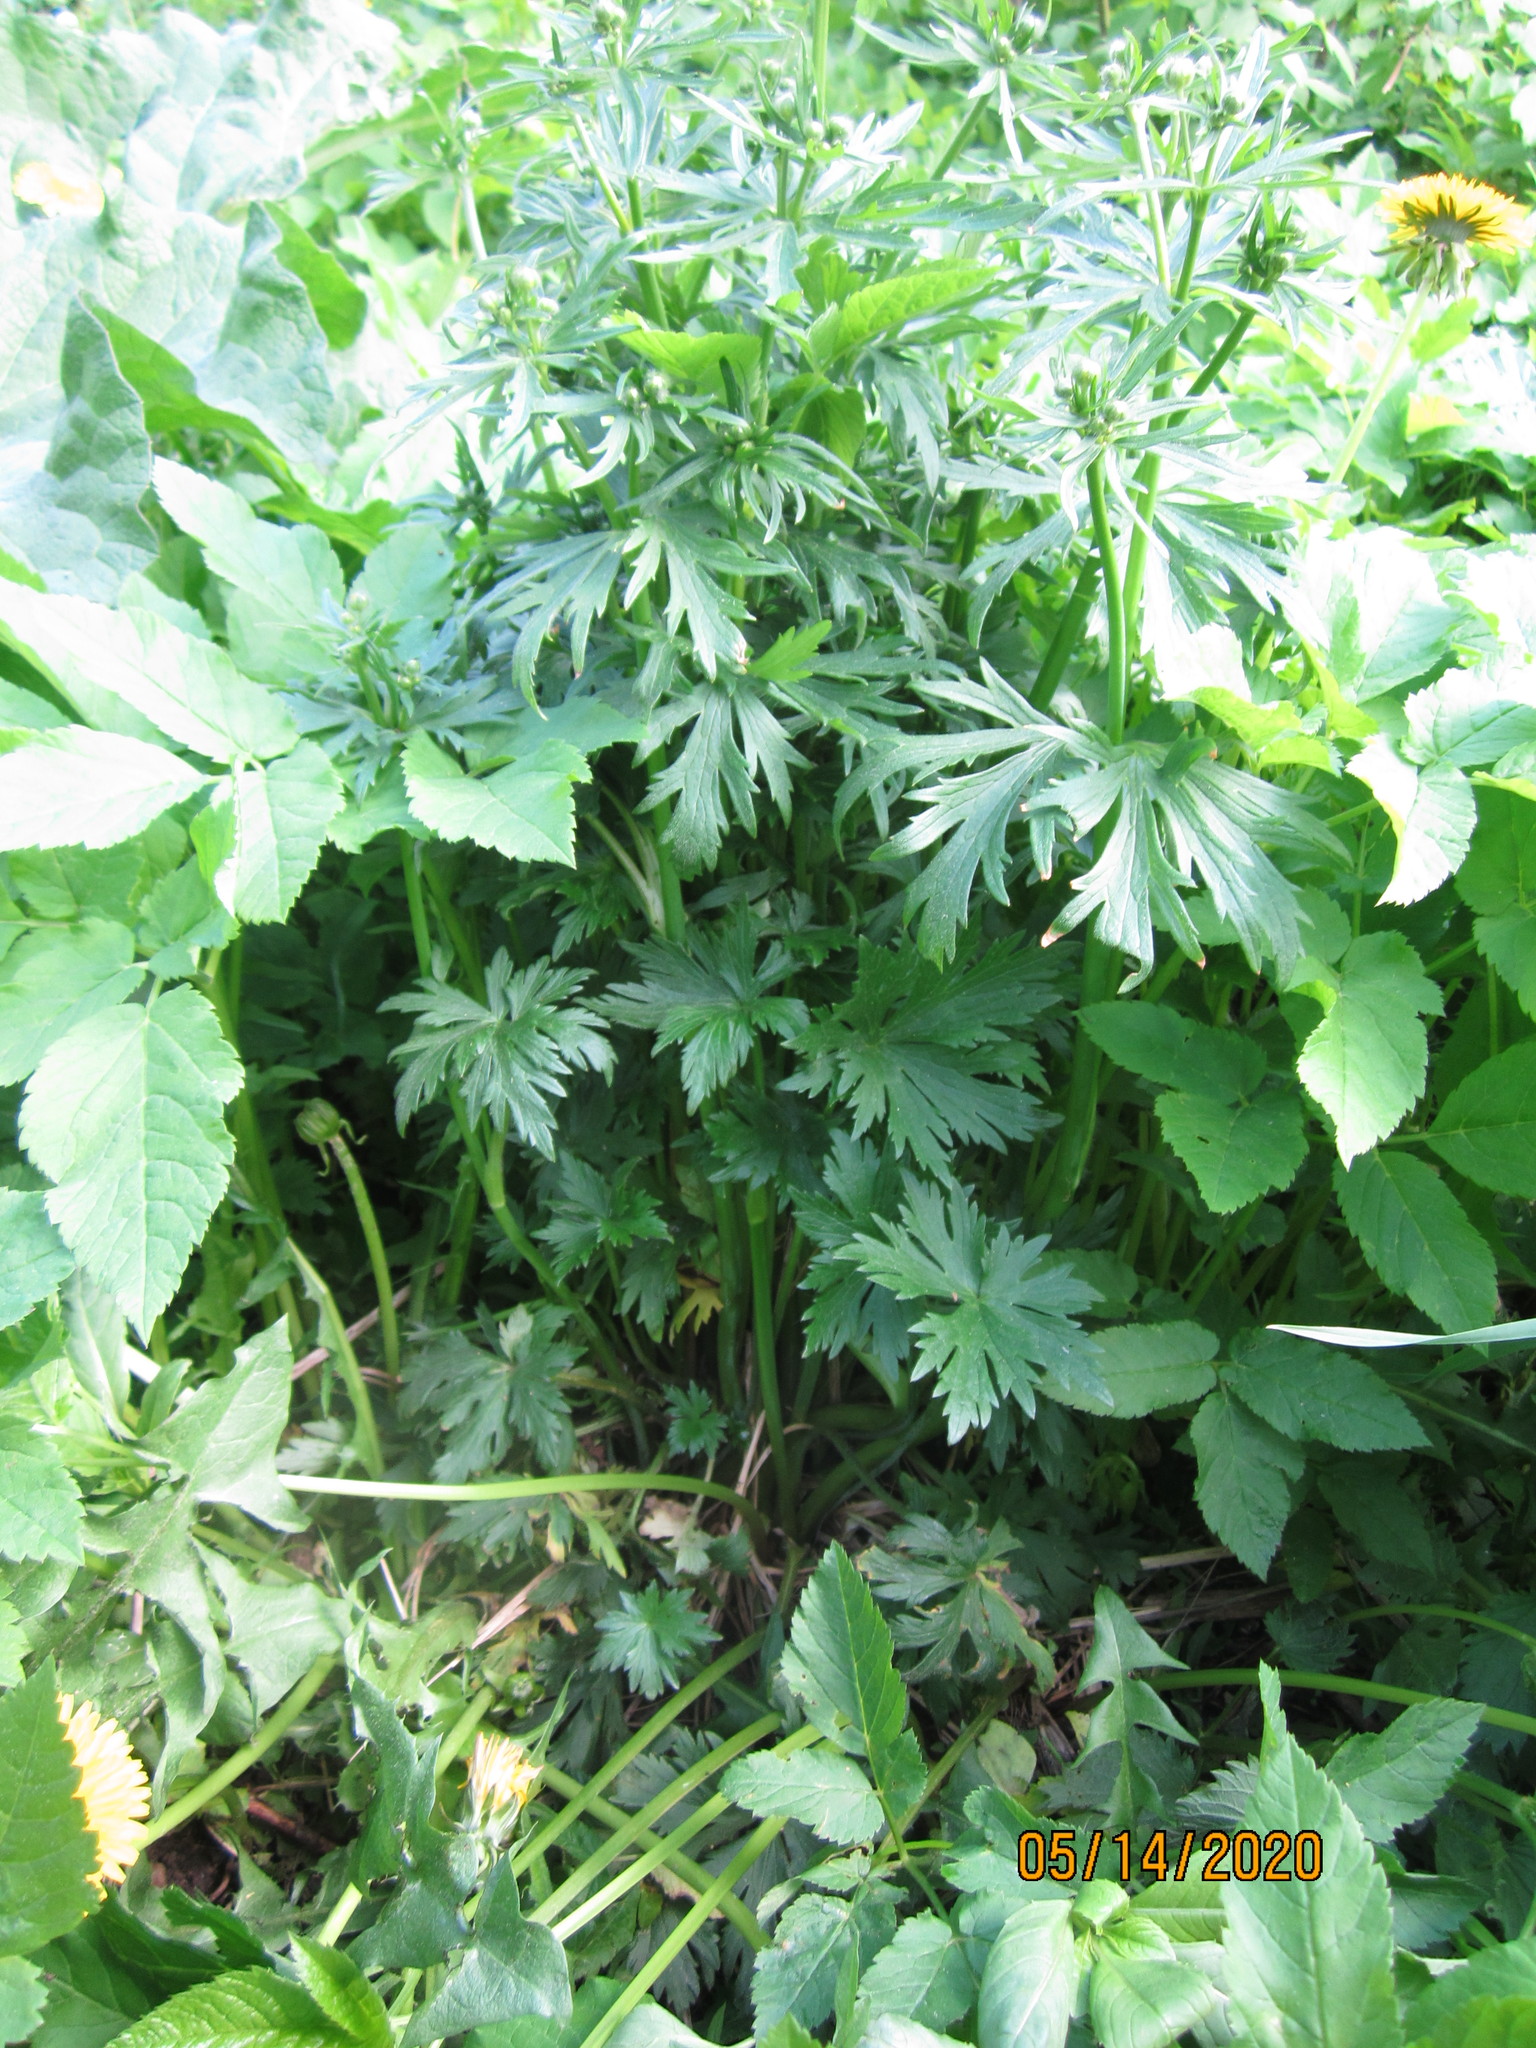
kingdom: Plantae
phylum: Tracheophyta
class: Magnoliopsida
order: Ranunculales
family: Ranunculaceae
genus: Ranunculus
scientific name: Ranunculus polyanthemos
